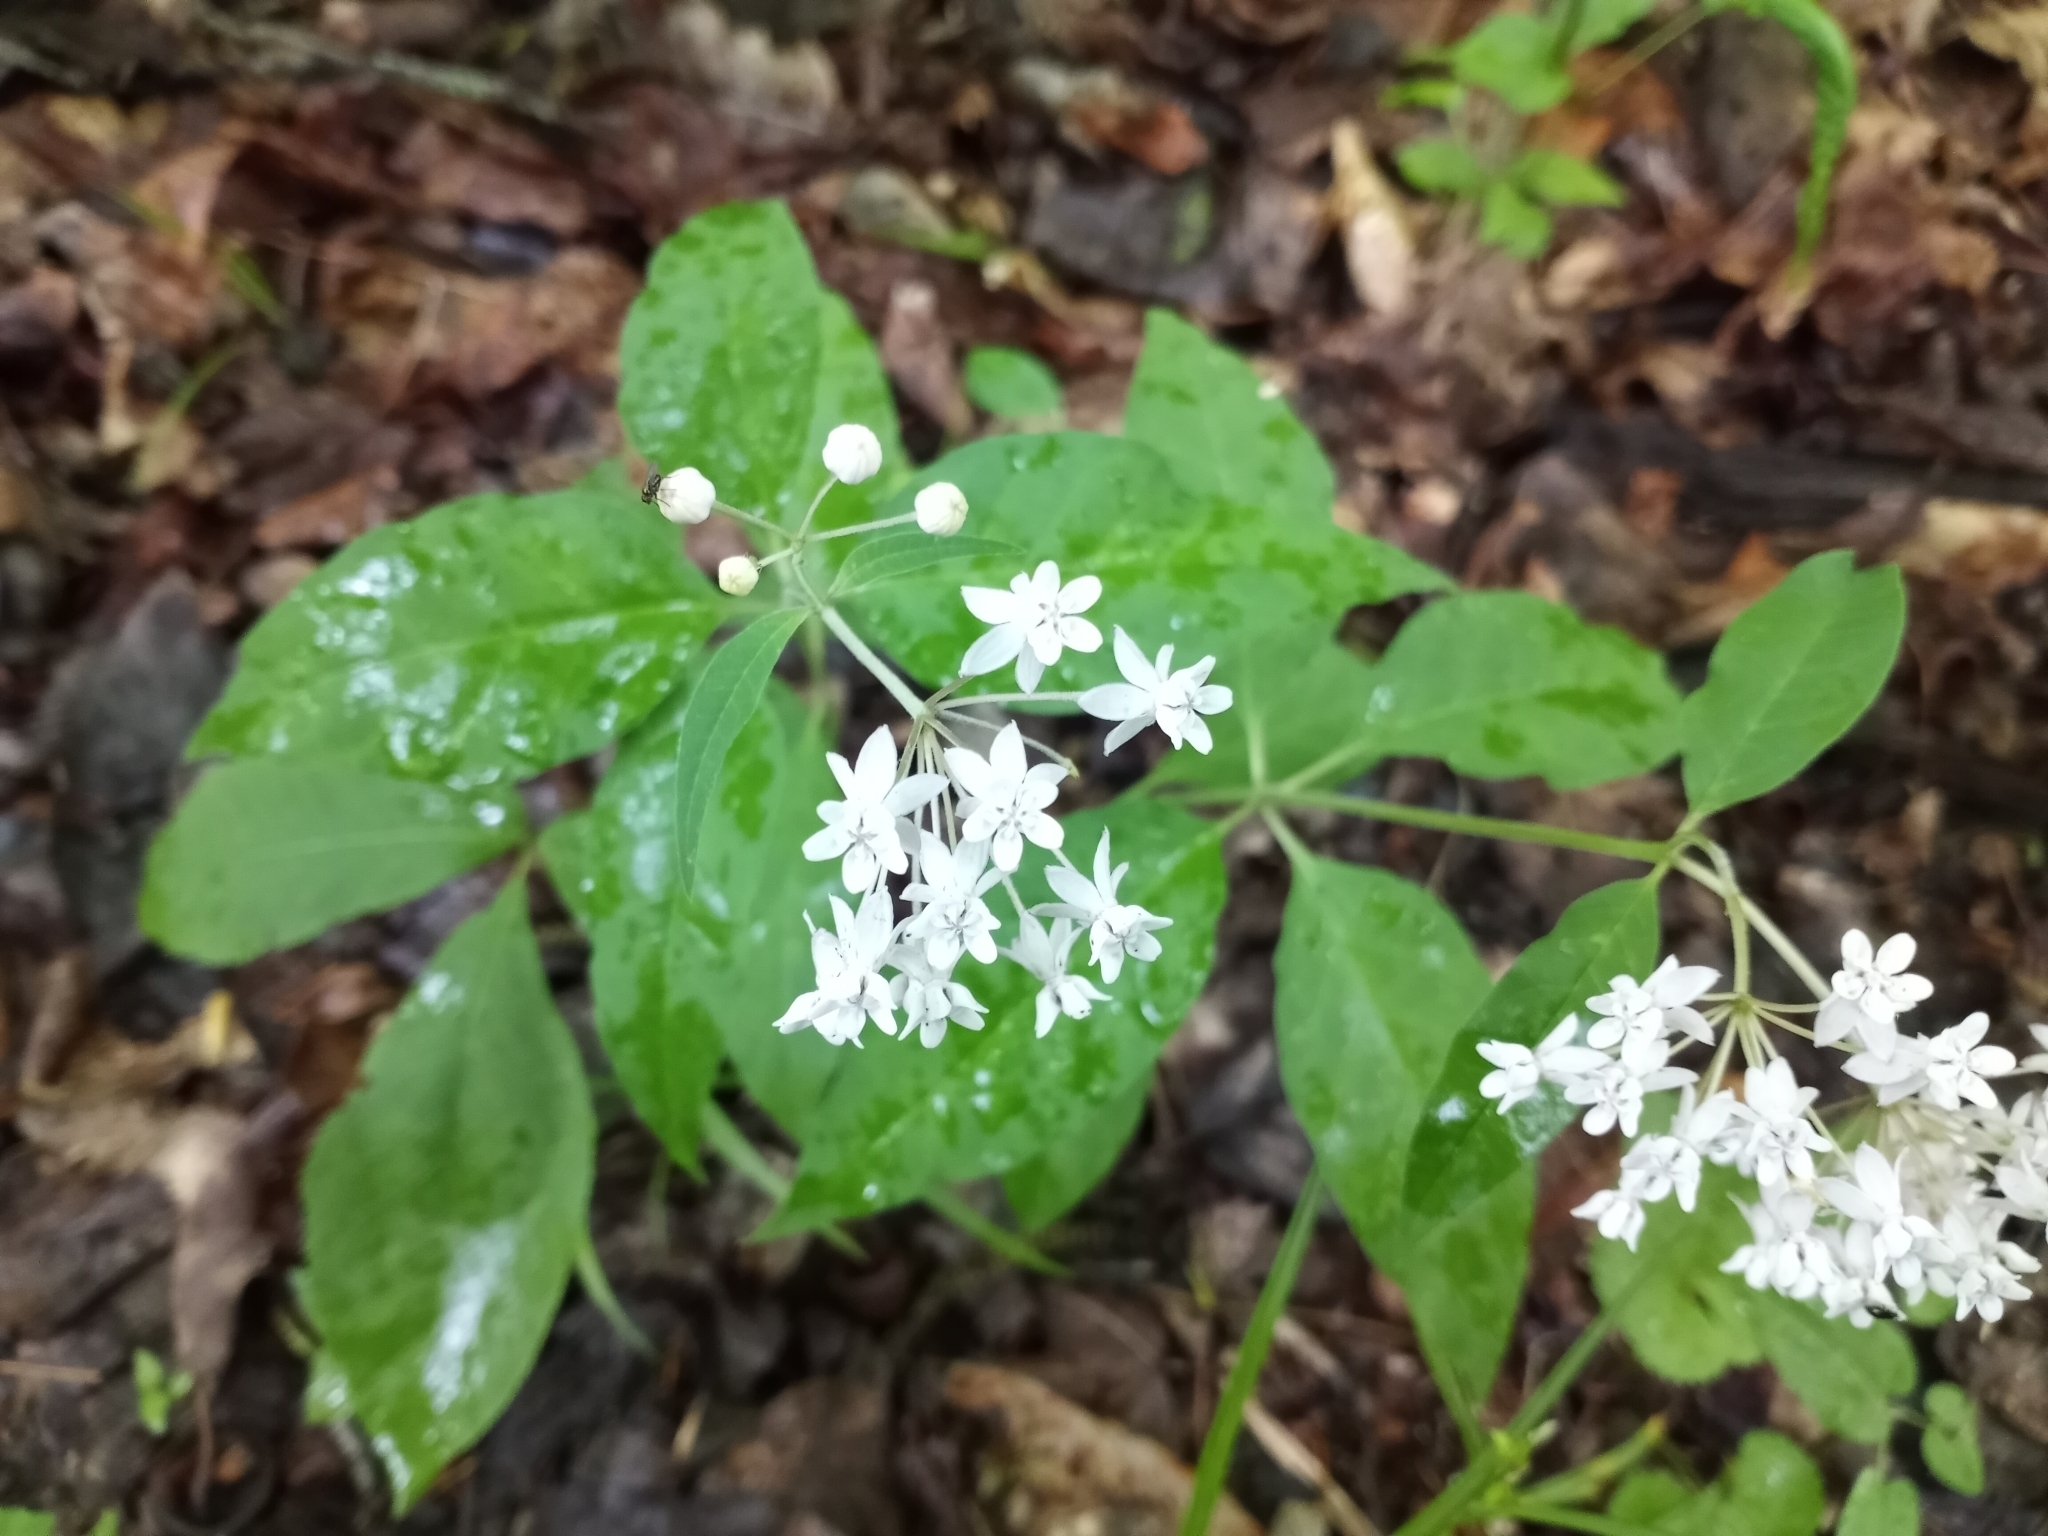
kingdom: Plantae
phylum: Tracheophyta
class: Magnoliopsida
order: Gentianales
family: Apocynaceae
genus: Asclepias
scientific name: Asclepias quadrifolia
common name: Whorled milkweed
